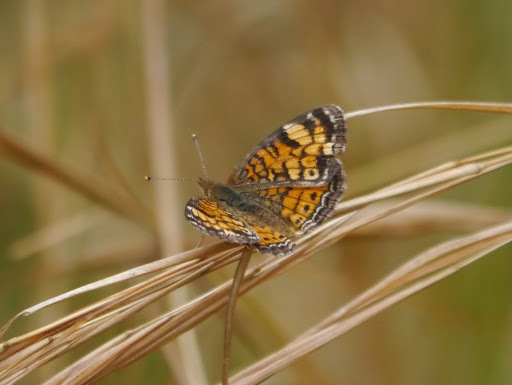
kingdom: Animalia
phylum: Arthropoda
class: Insecta
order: Lepidoptera
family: Nymphalidae
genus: Phyciodes
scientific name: Phyciodes tharos
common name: Pearl crescent
